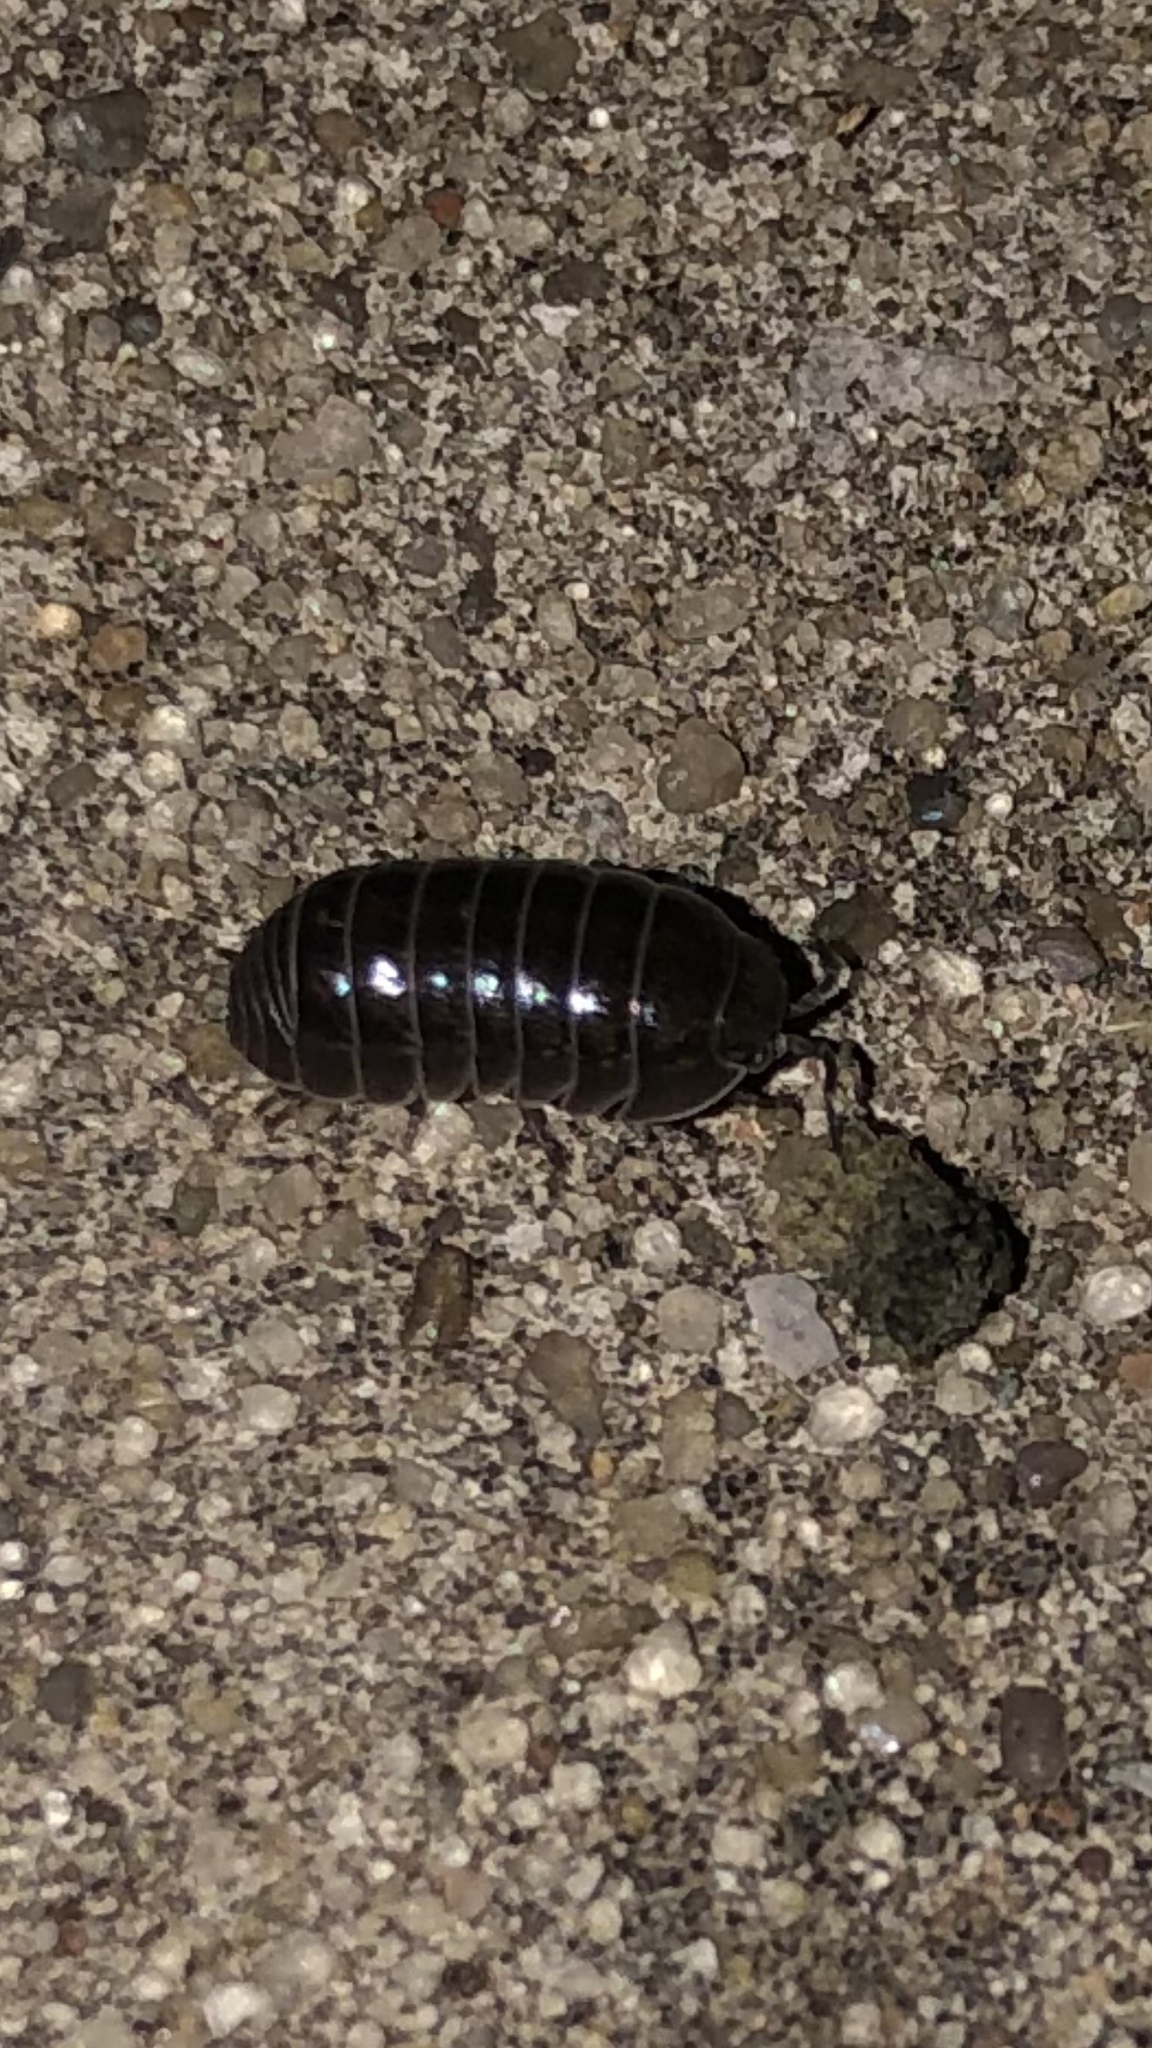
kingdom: Animalia
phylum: Arthropoda
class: Malacostraca
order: Isopoda
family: Armadillidiidae
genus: Armadillidium
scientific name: Armadillidium vulgare
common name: Common pill woodlouse
